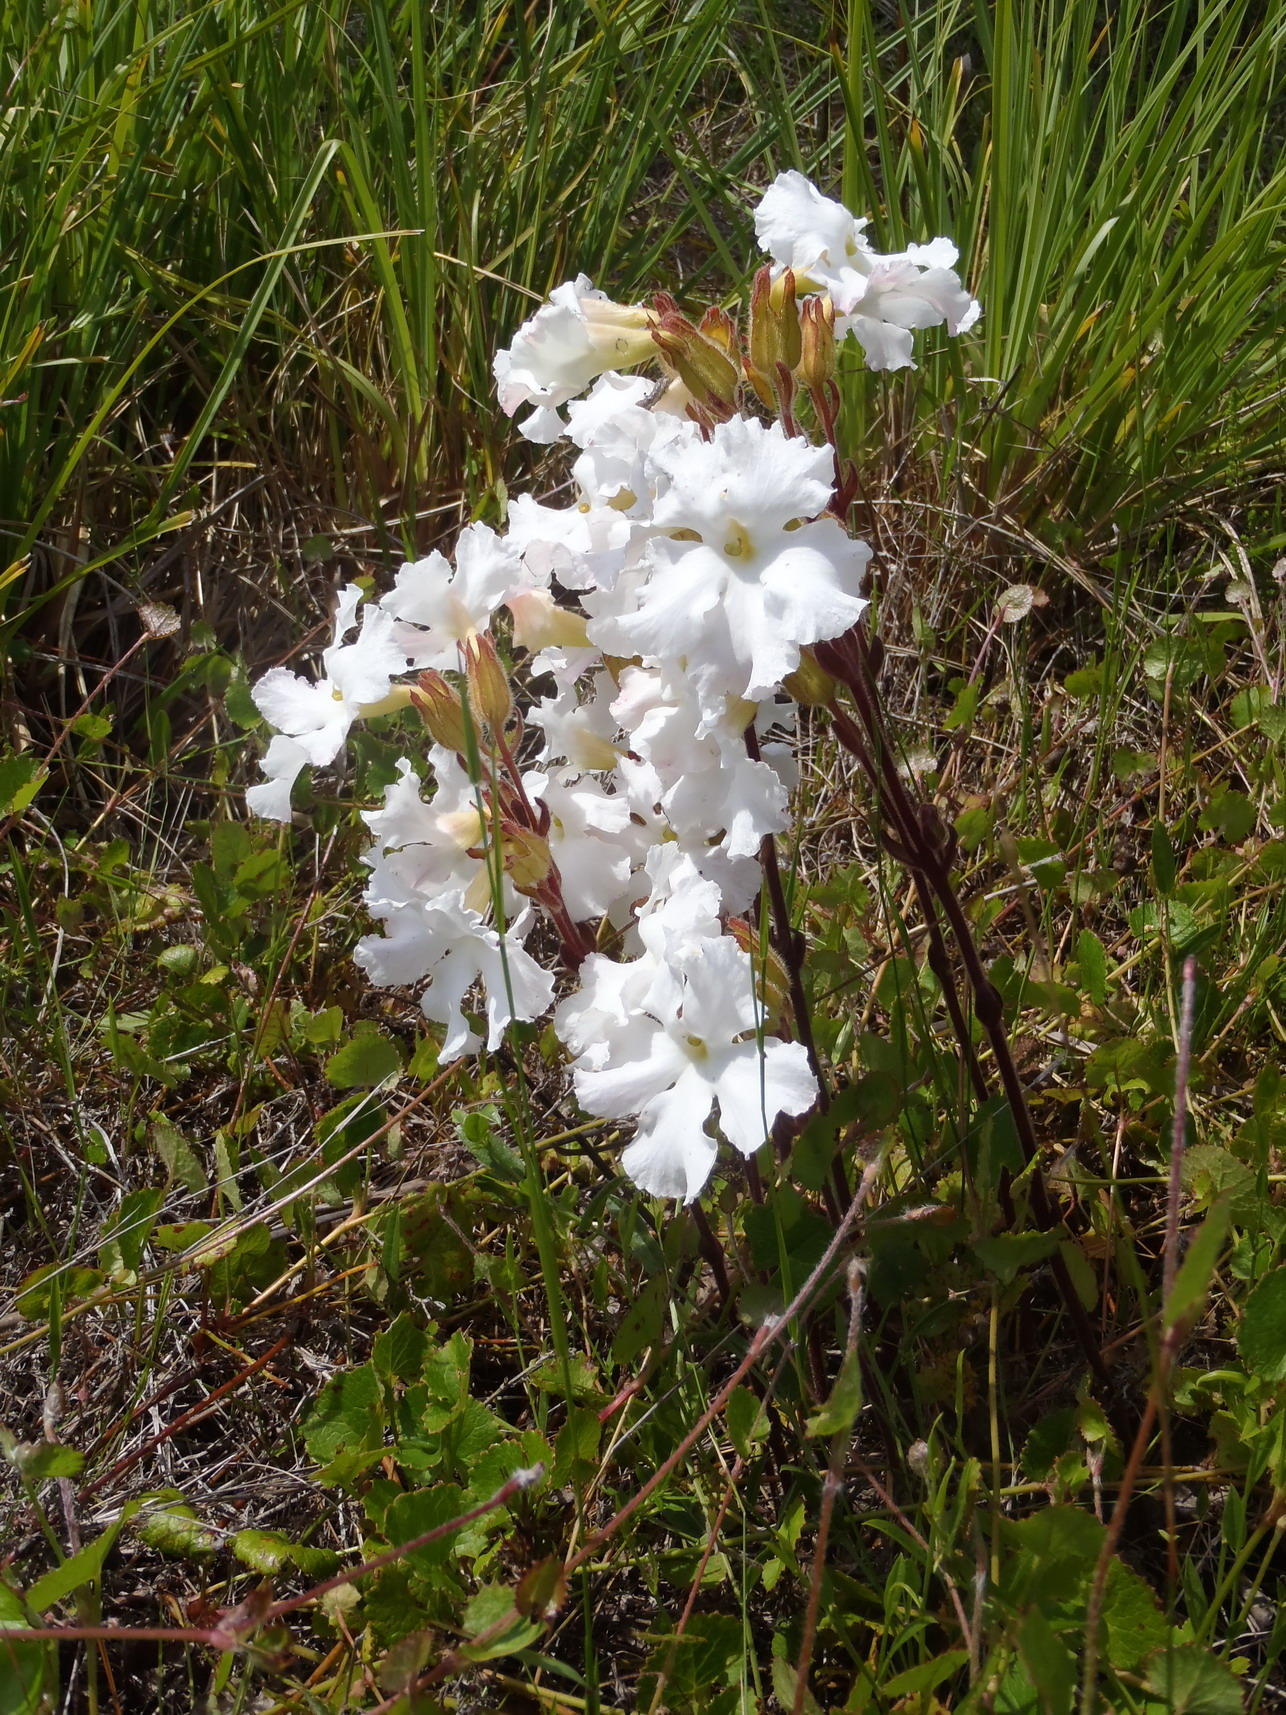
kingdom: Plantae
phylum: Tracheophyta
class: Magnoliopsida
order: Lamiales
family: Orobanchaceae
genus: Harveya
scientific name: Harveya capensis
